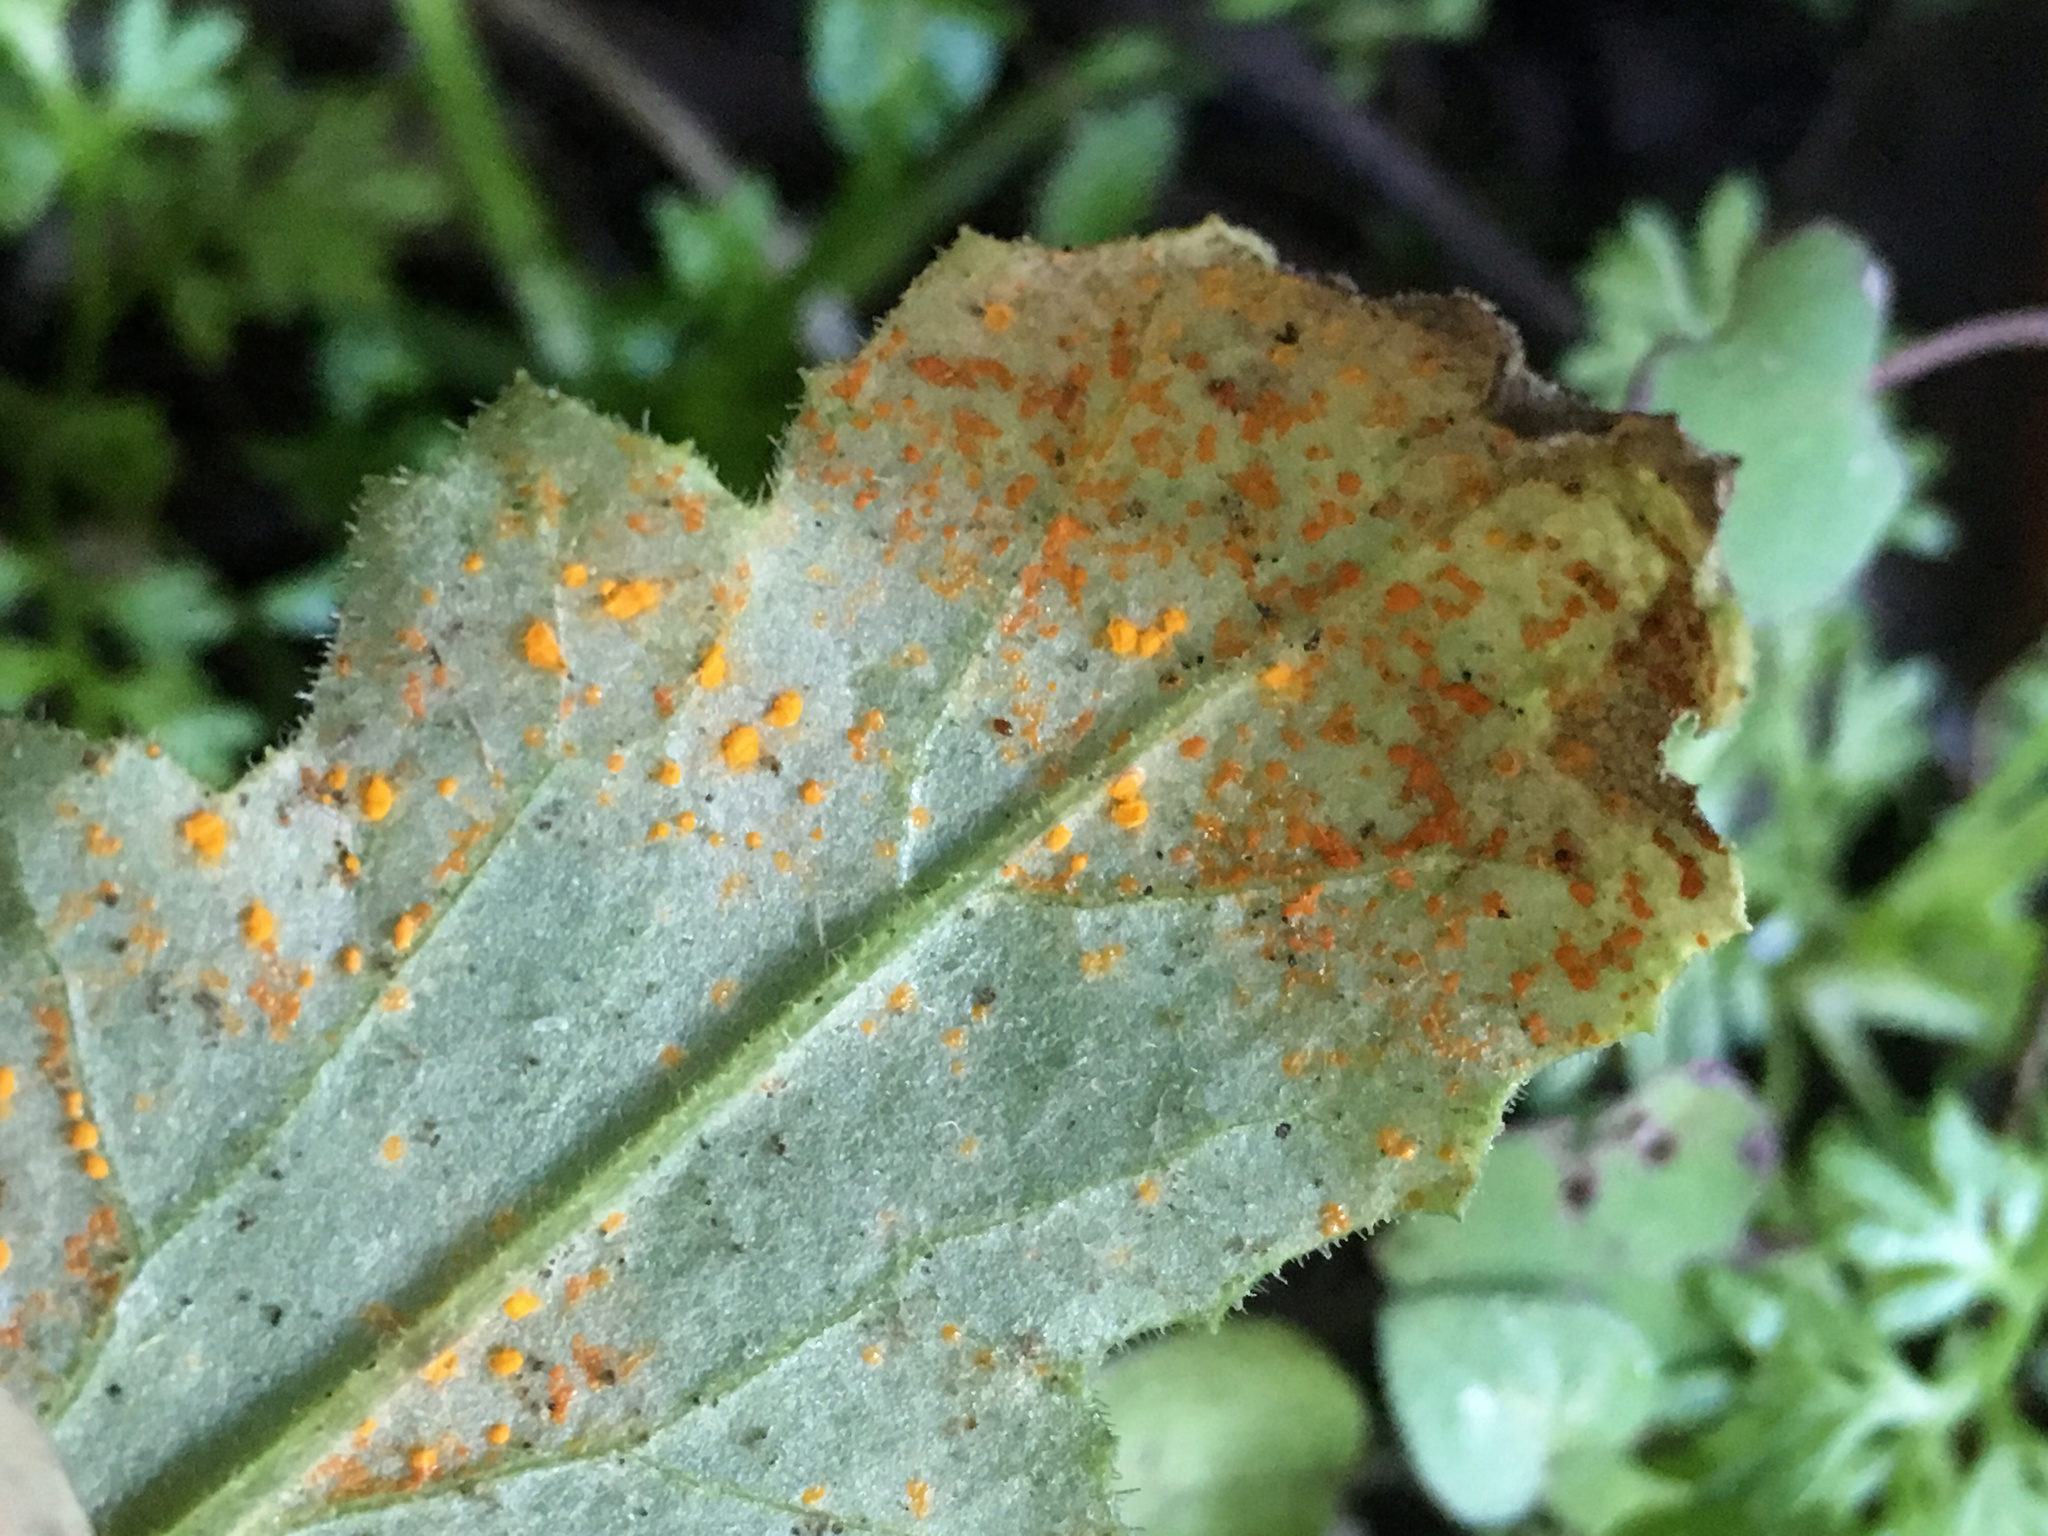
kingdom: Fungi
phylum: Basidiomycota
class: Pucciniomycetes
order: Pucciniales
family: Coleosporiaceae
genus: Coleosporium
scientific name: Coleosporium tussilaginis
